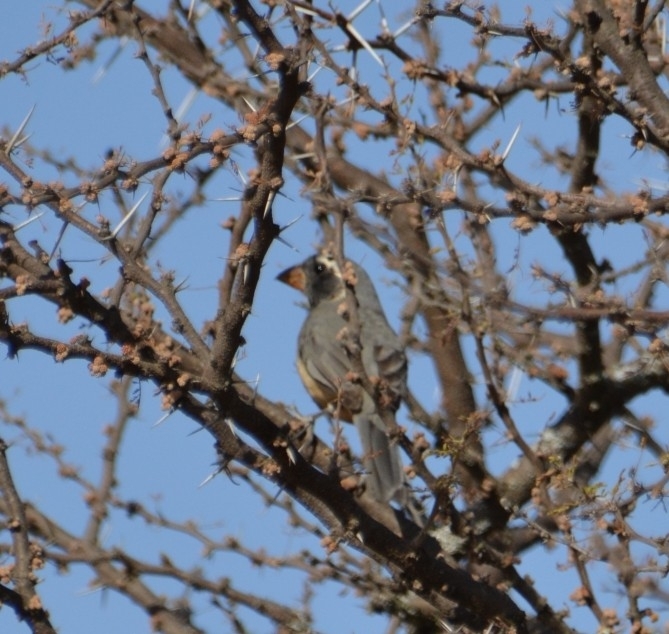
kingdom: Animalia
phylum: Chordata
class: Aves
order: Passeriformes
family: Thraupidae
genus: Saltator
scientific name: Saltator aurantiirostris
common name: Golden-billed saltator
